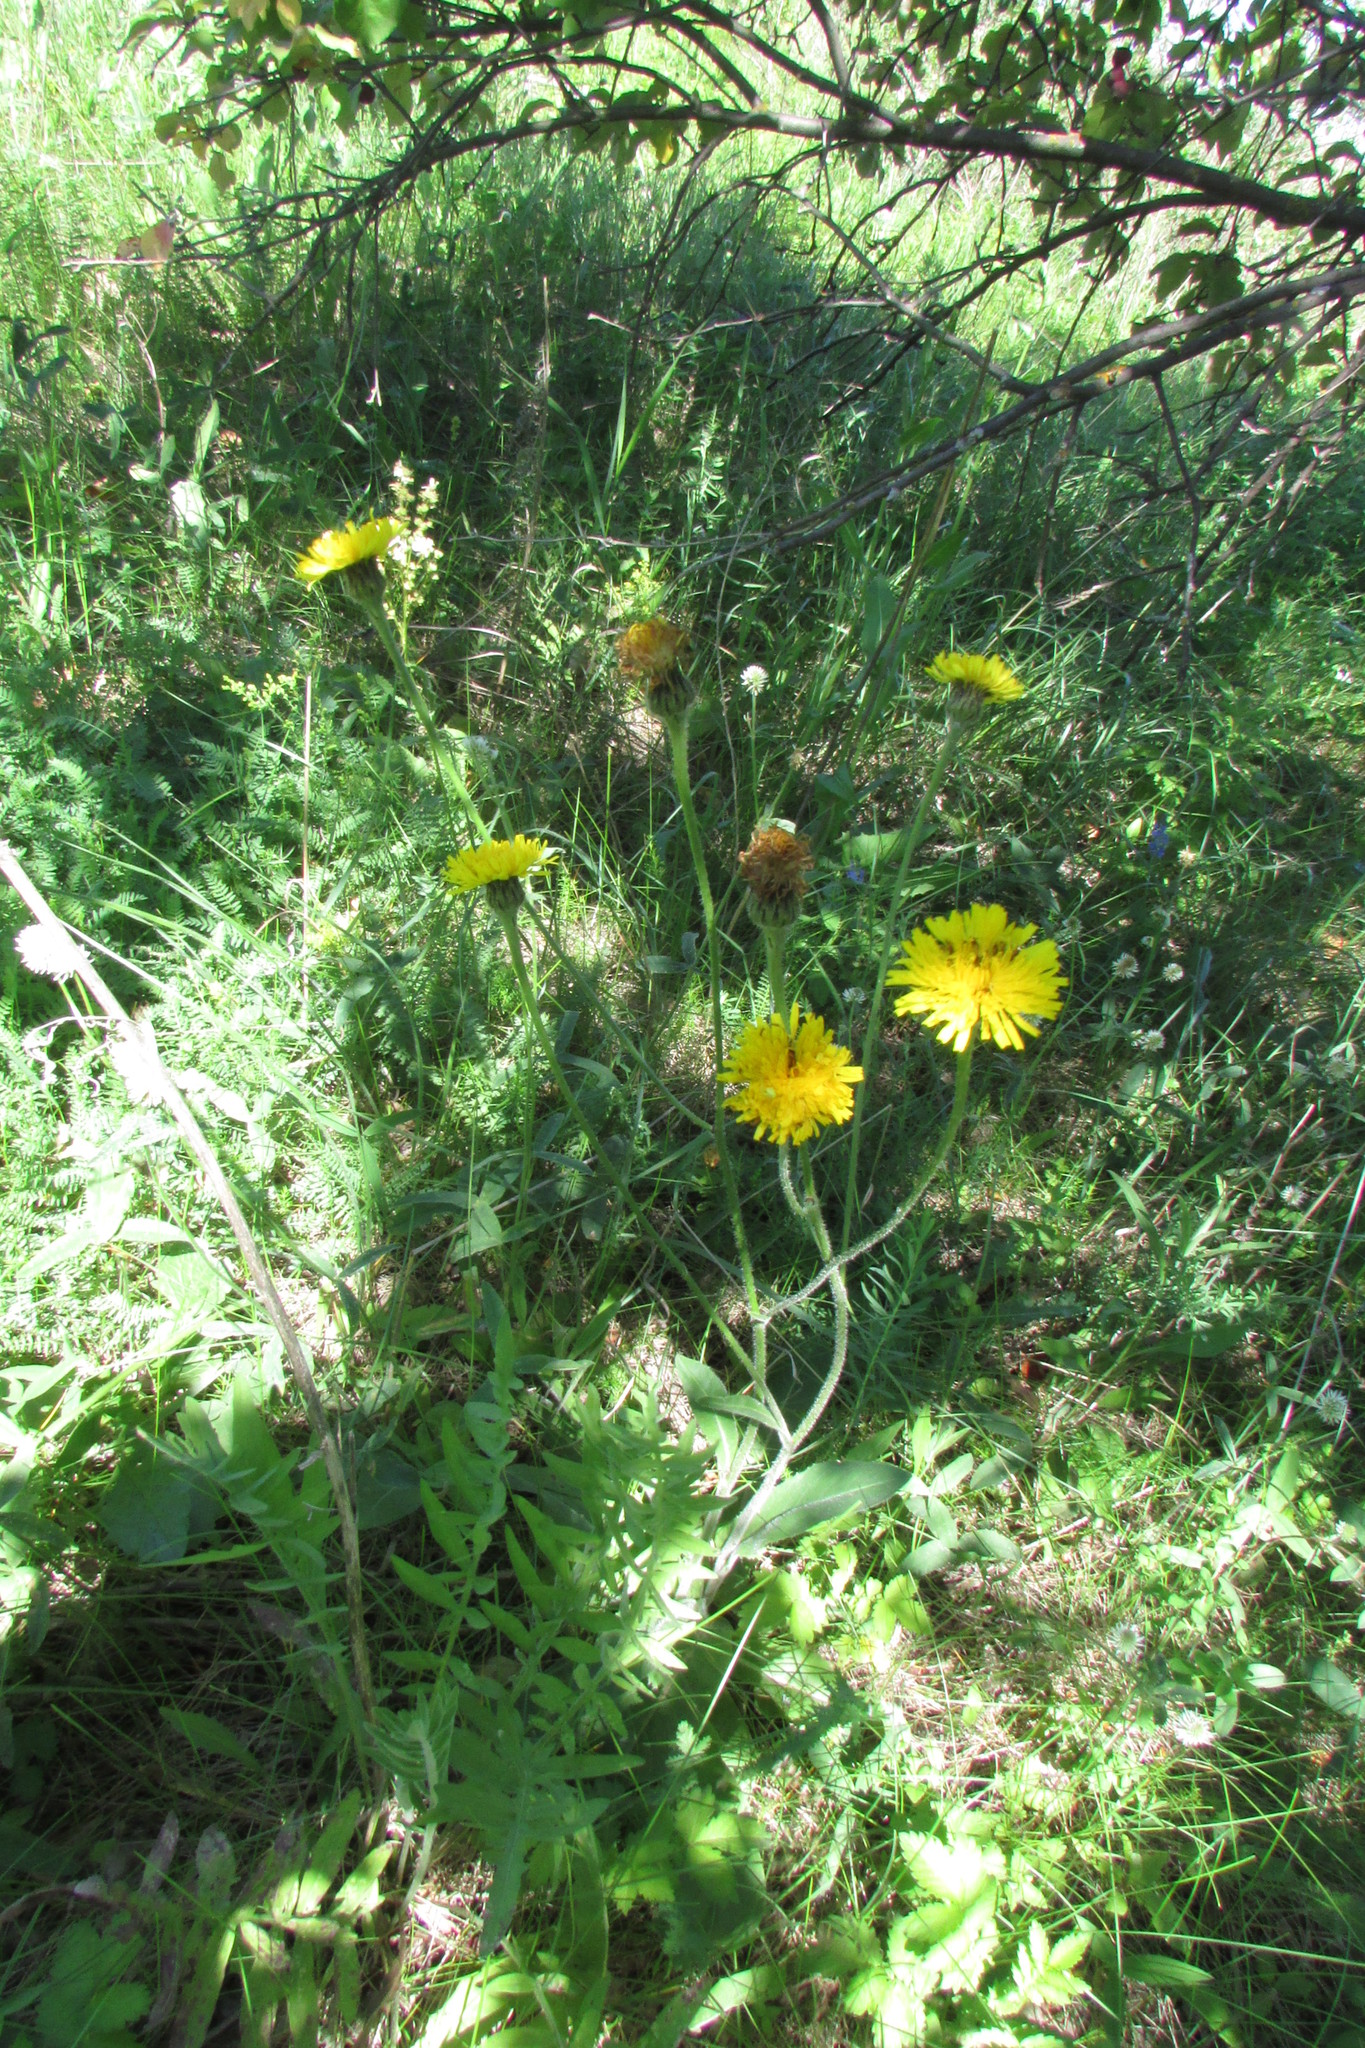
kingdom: Plantae
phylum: Tracheophyta
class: Magnoliopsida
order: Asterales
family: Asteraceae
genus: Trommsdorffia
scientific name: Trommsdorffia maculata
